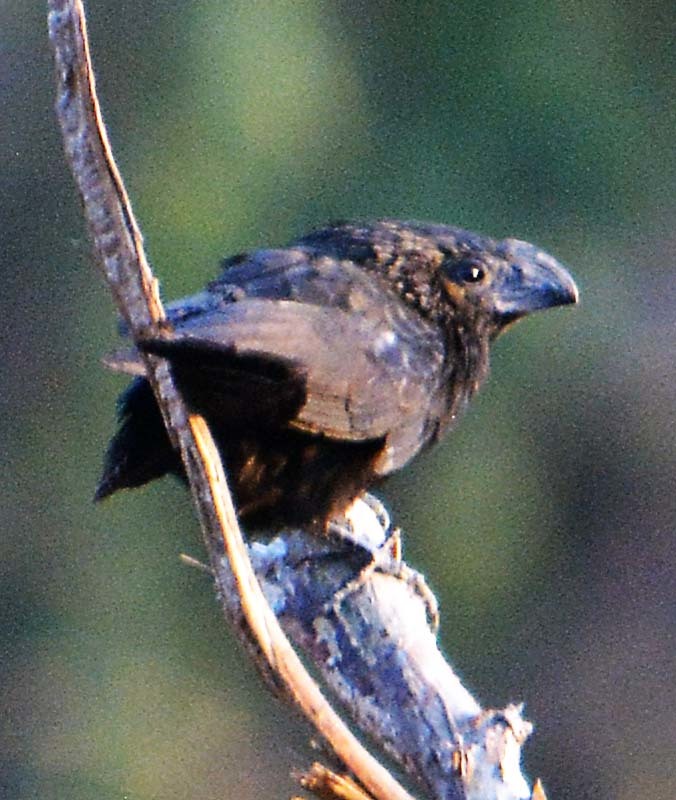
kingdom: Animalia
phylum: Chordata
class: Aves
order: Cuculiformes
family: Cuculidae
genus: Crotophaga
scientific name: Crotophaga sulcirostris
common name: Groove-billed ani
